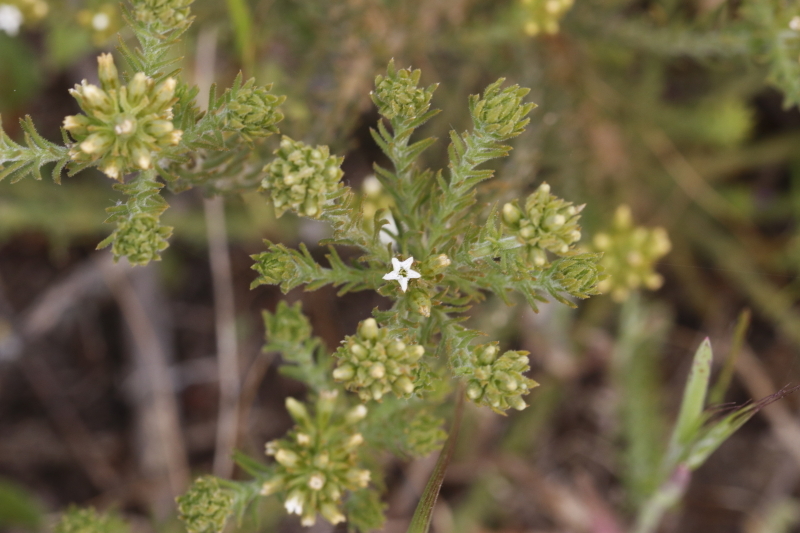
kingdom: Plantae
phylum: Tracheophyta
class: Magnoliopsida
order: Santalales
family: Thesiaceae
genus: Thesium
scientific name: Thesium pubescens
